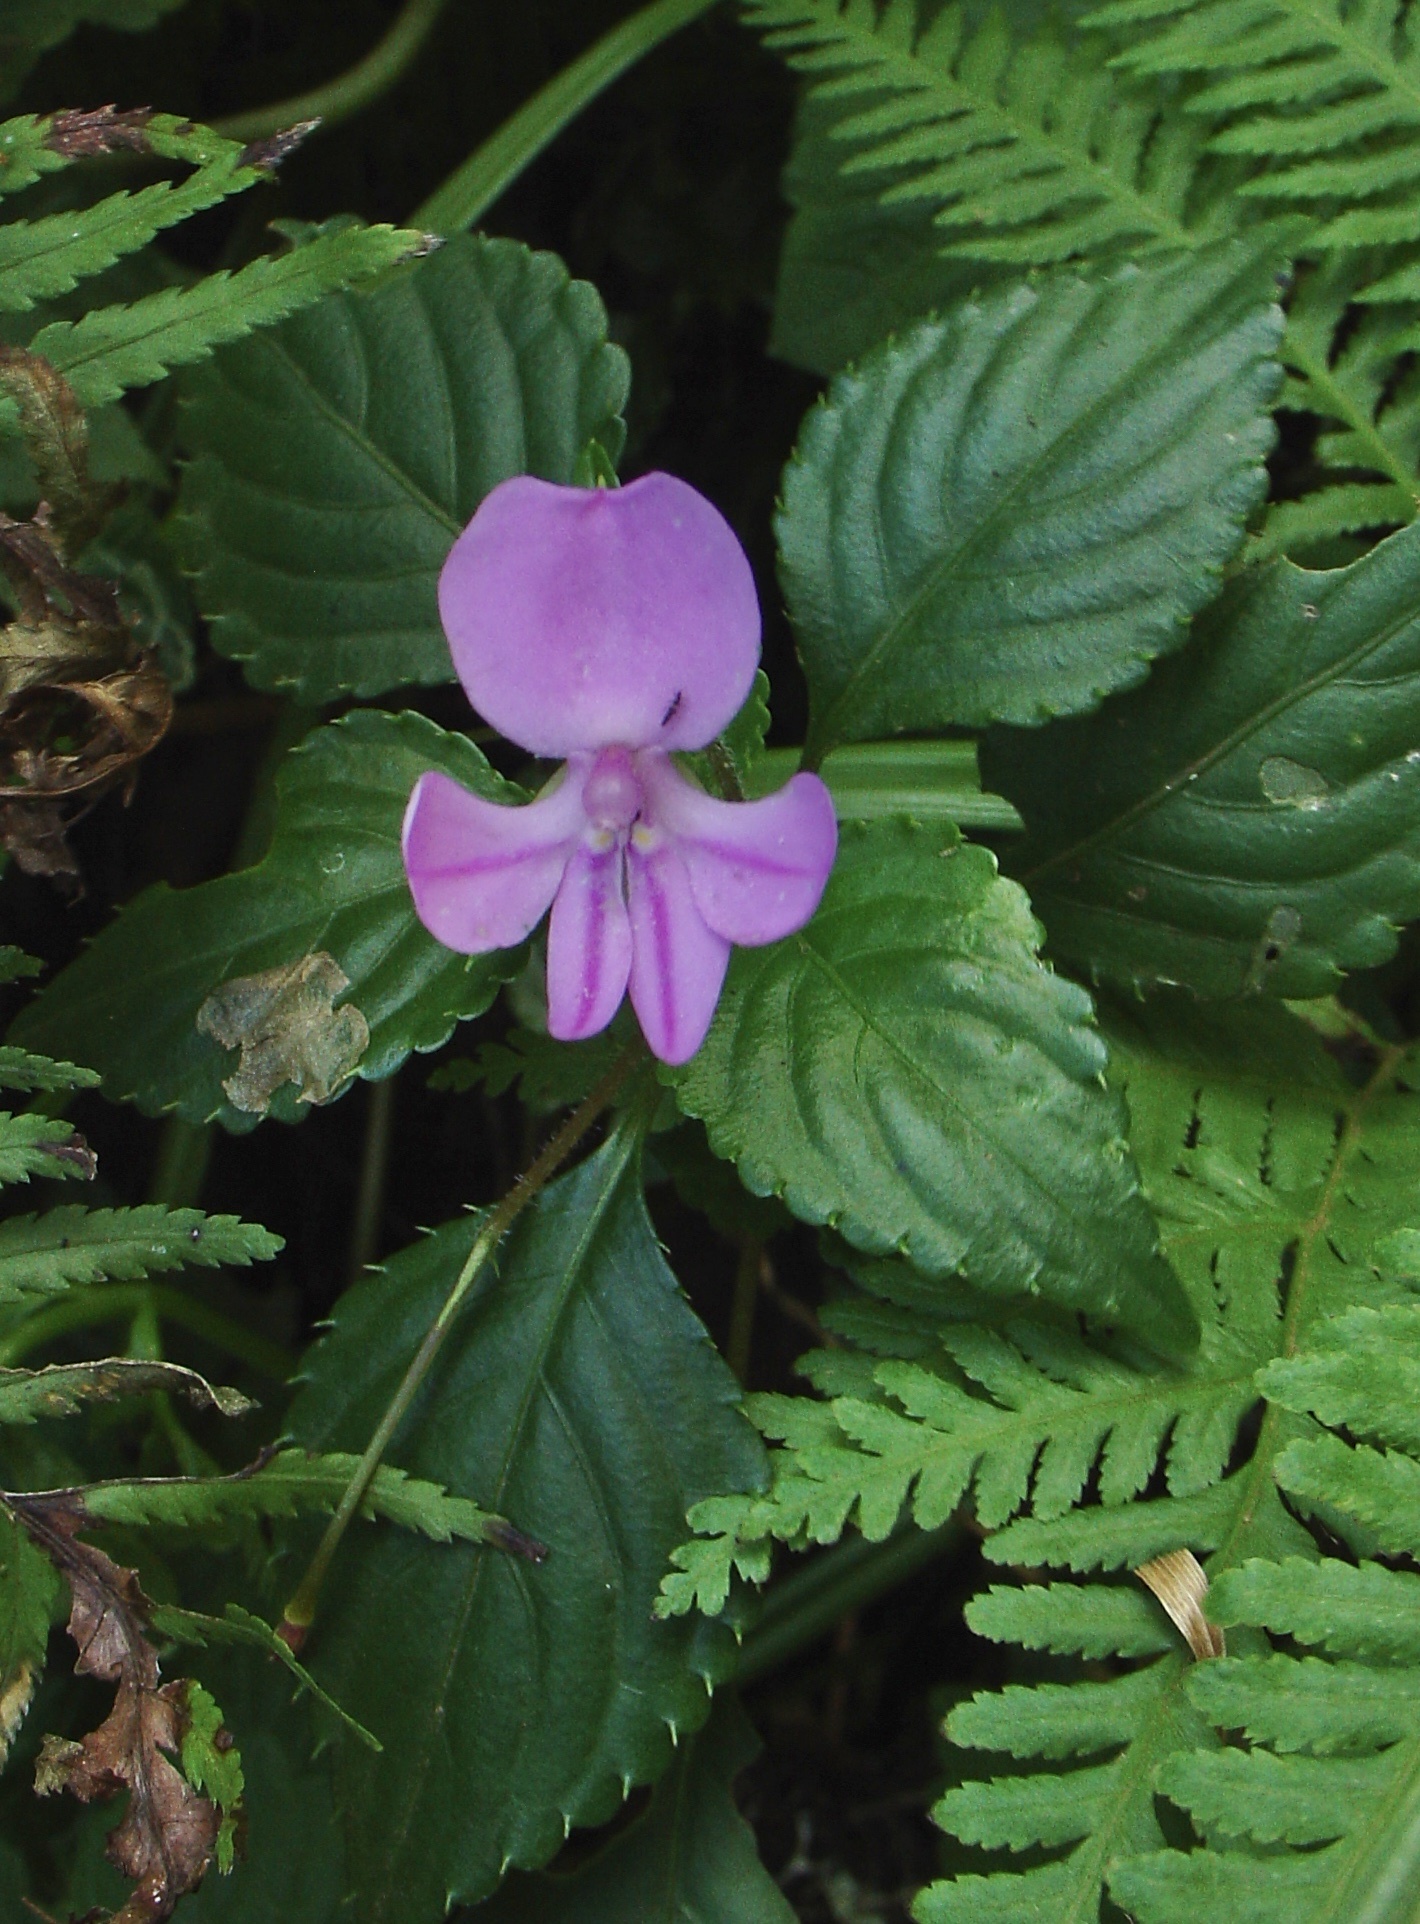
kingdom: Plantae
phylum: Tracheophyta
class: Magnoliopsida
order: Ericales
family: Balsaminaceae
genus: Impatiens
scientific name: Impatiens pseudoviola
